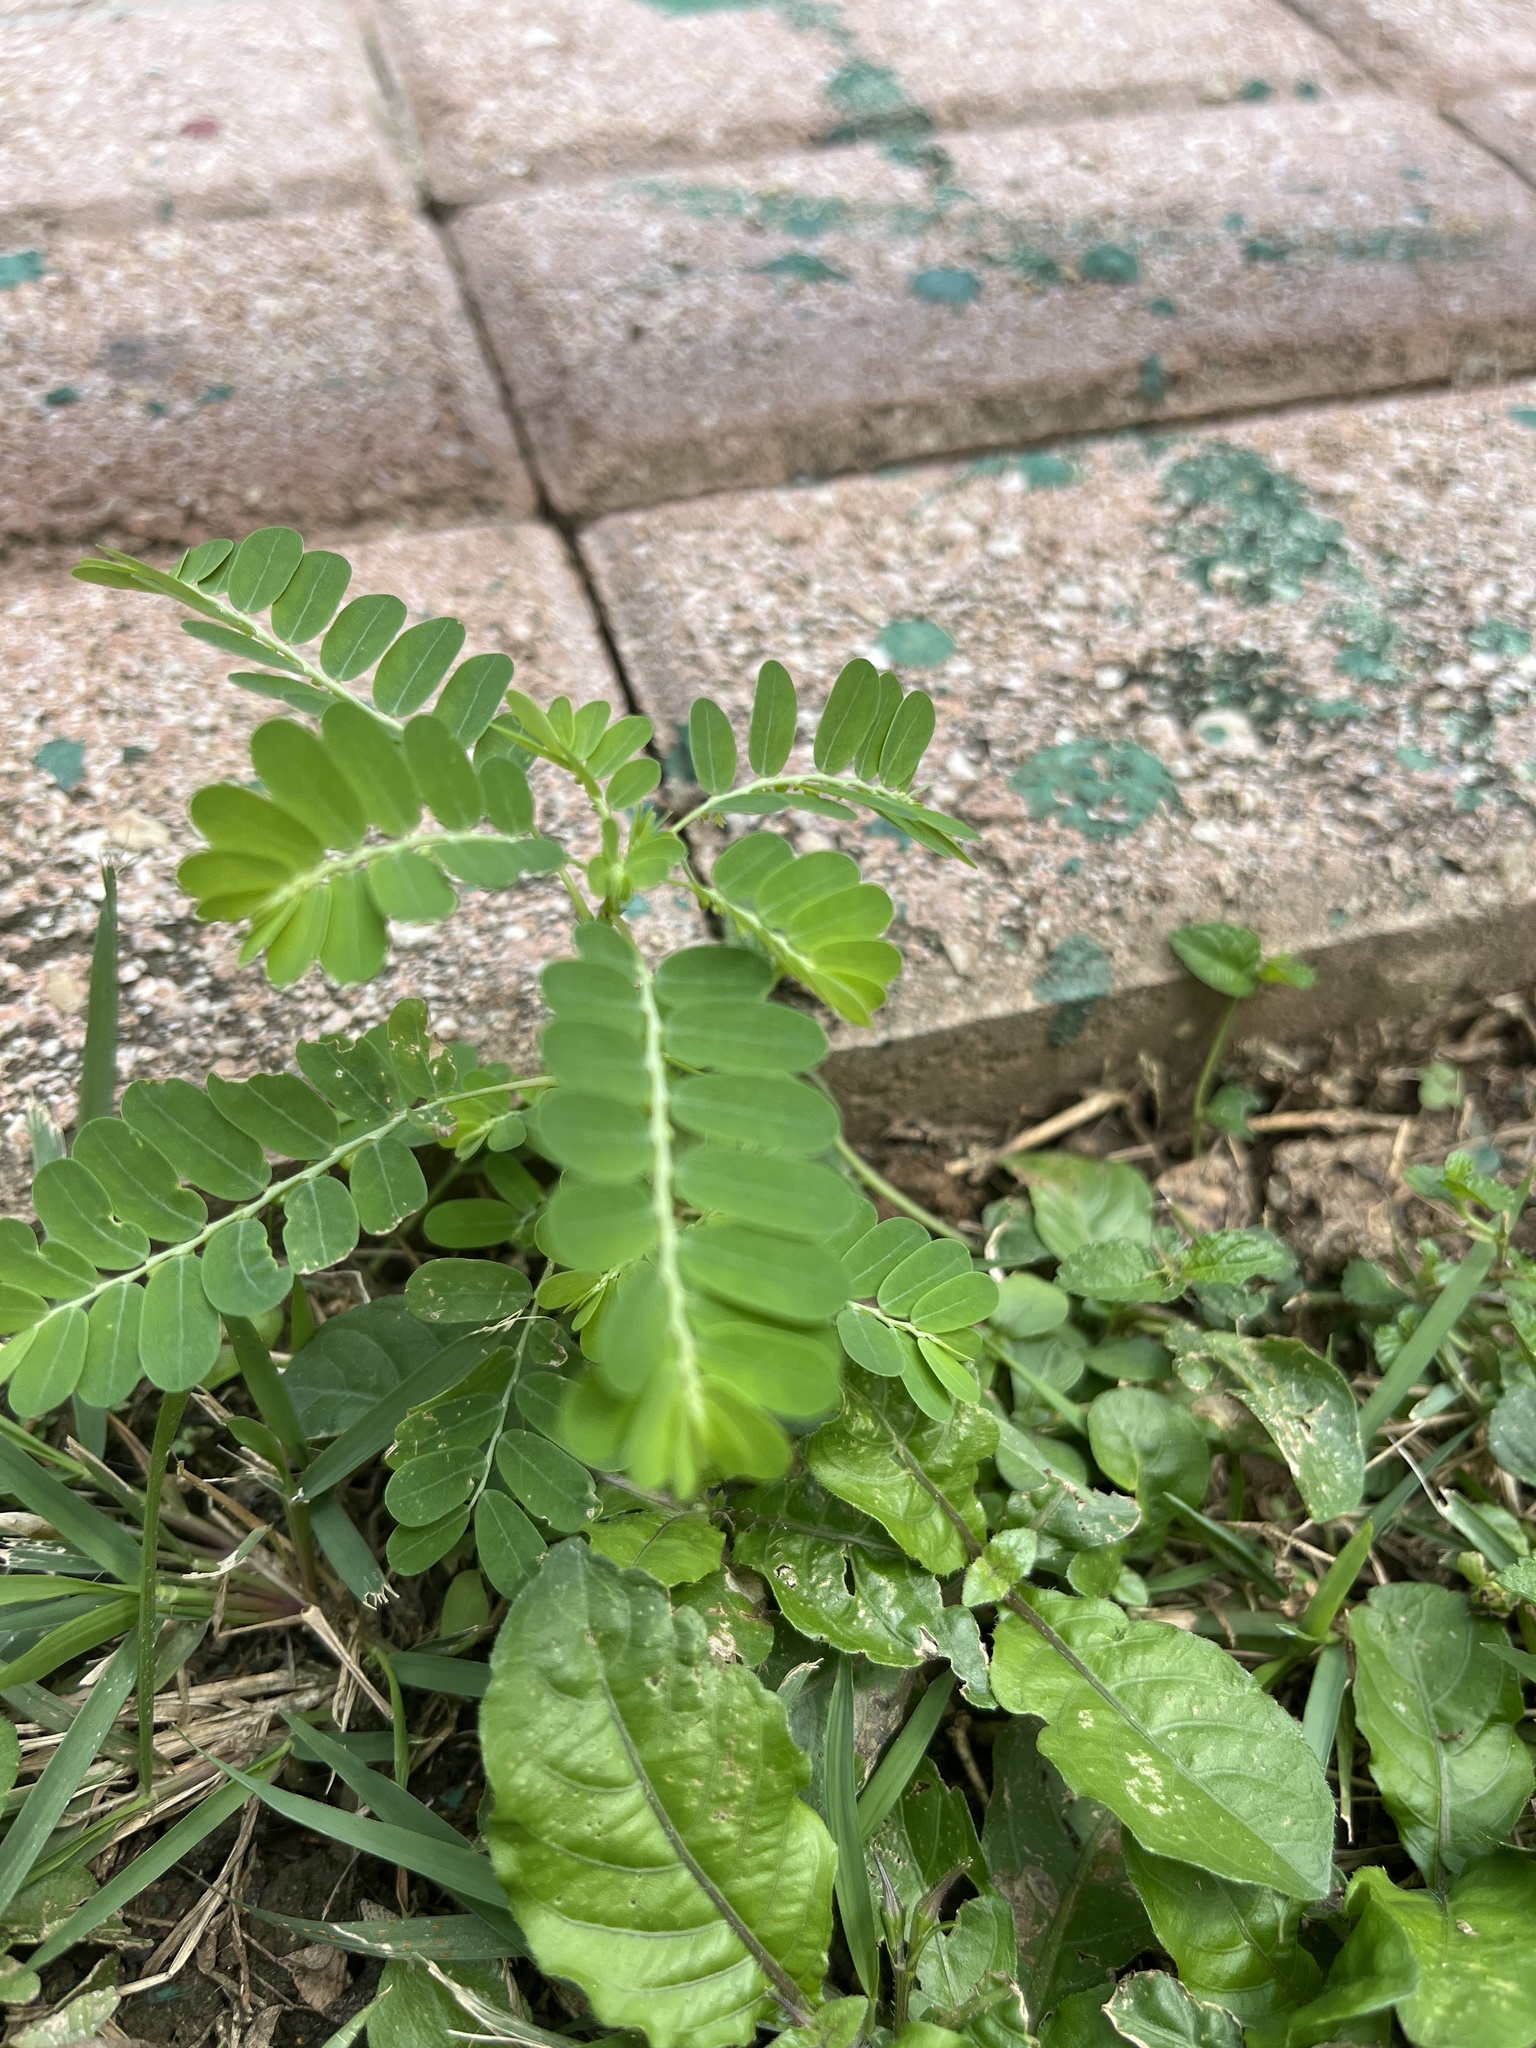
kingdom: Plantae
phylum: Tracheophyta
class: Magnoliopsida
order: Malpighiales
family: Phyllanthaceae
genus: Phyllanthus
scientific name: Phyllanthus amarus
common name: Carry me seed
